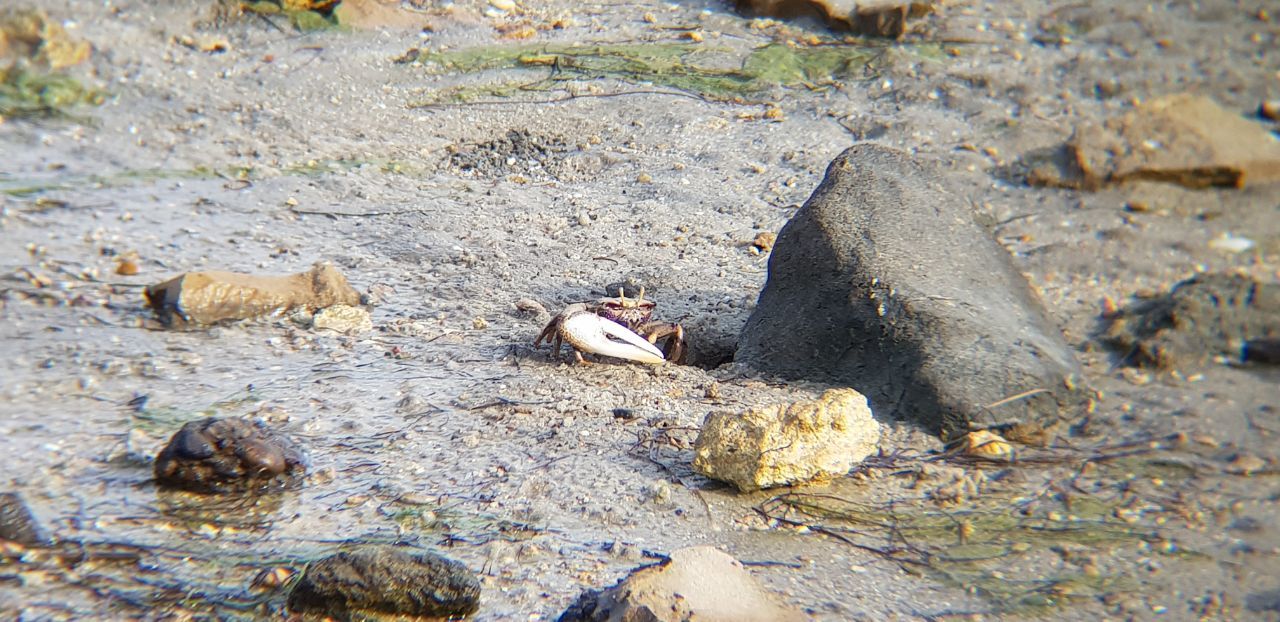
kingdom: Animalia
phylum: Arthropoda
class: Malacostraca
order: Decapoda
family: Ocypodidae
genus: Afruca
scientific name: Afruca tangeri
